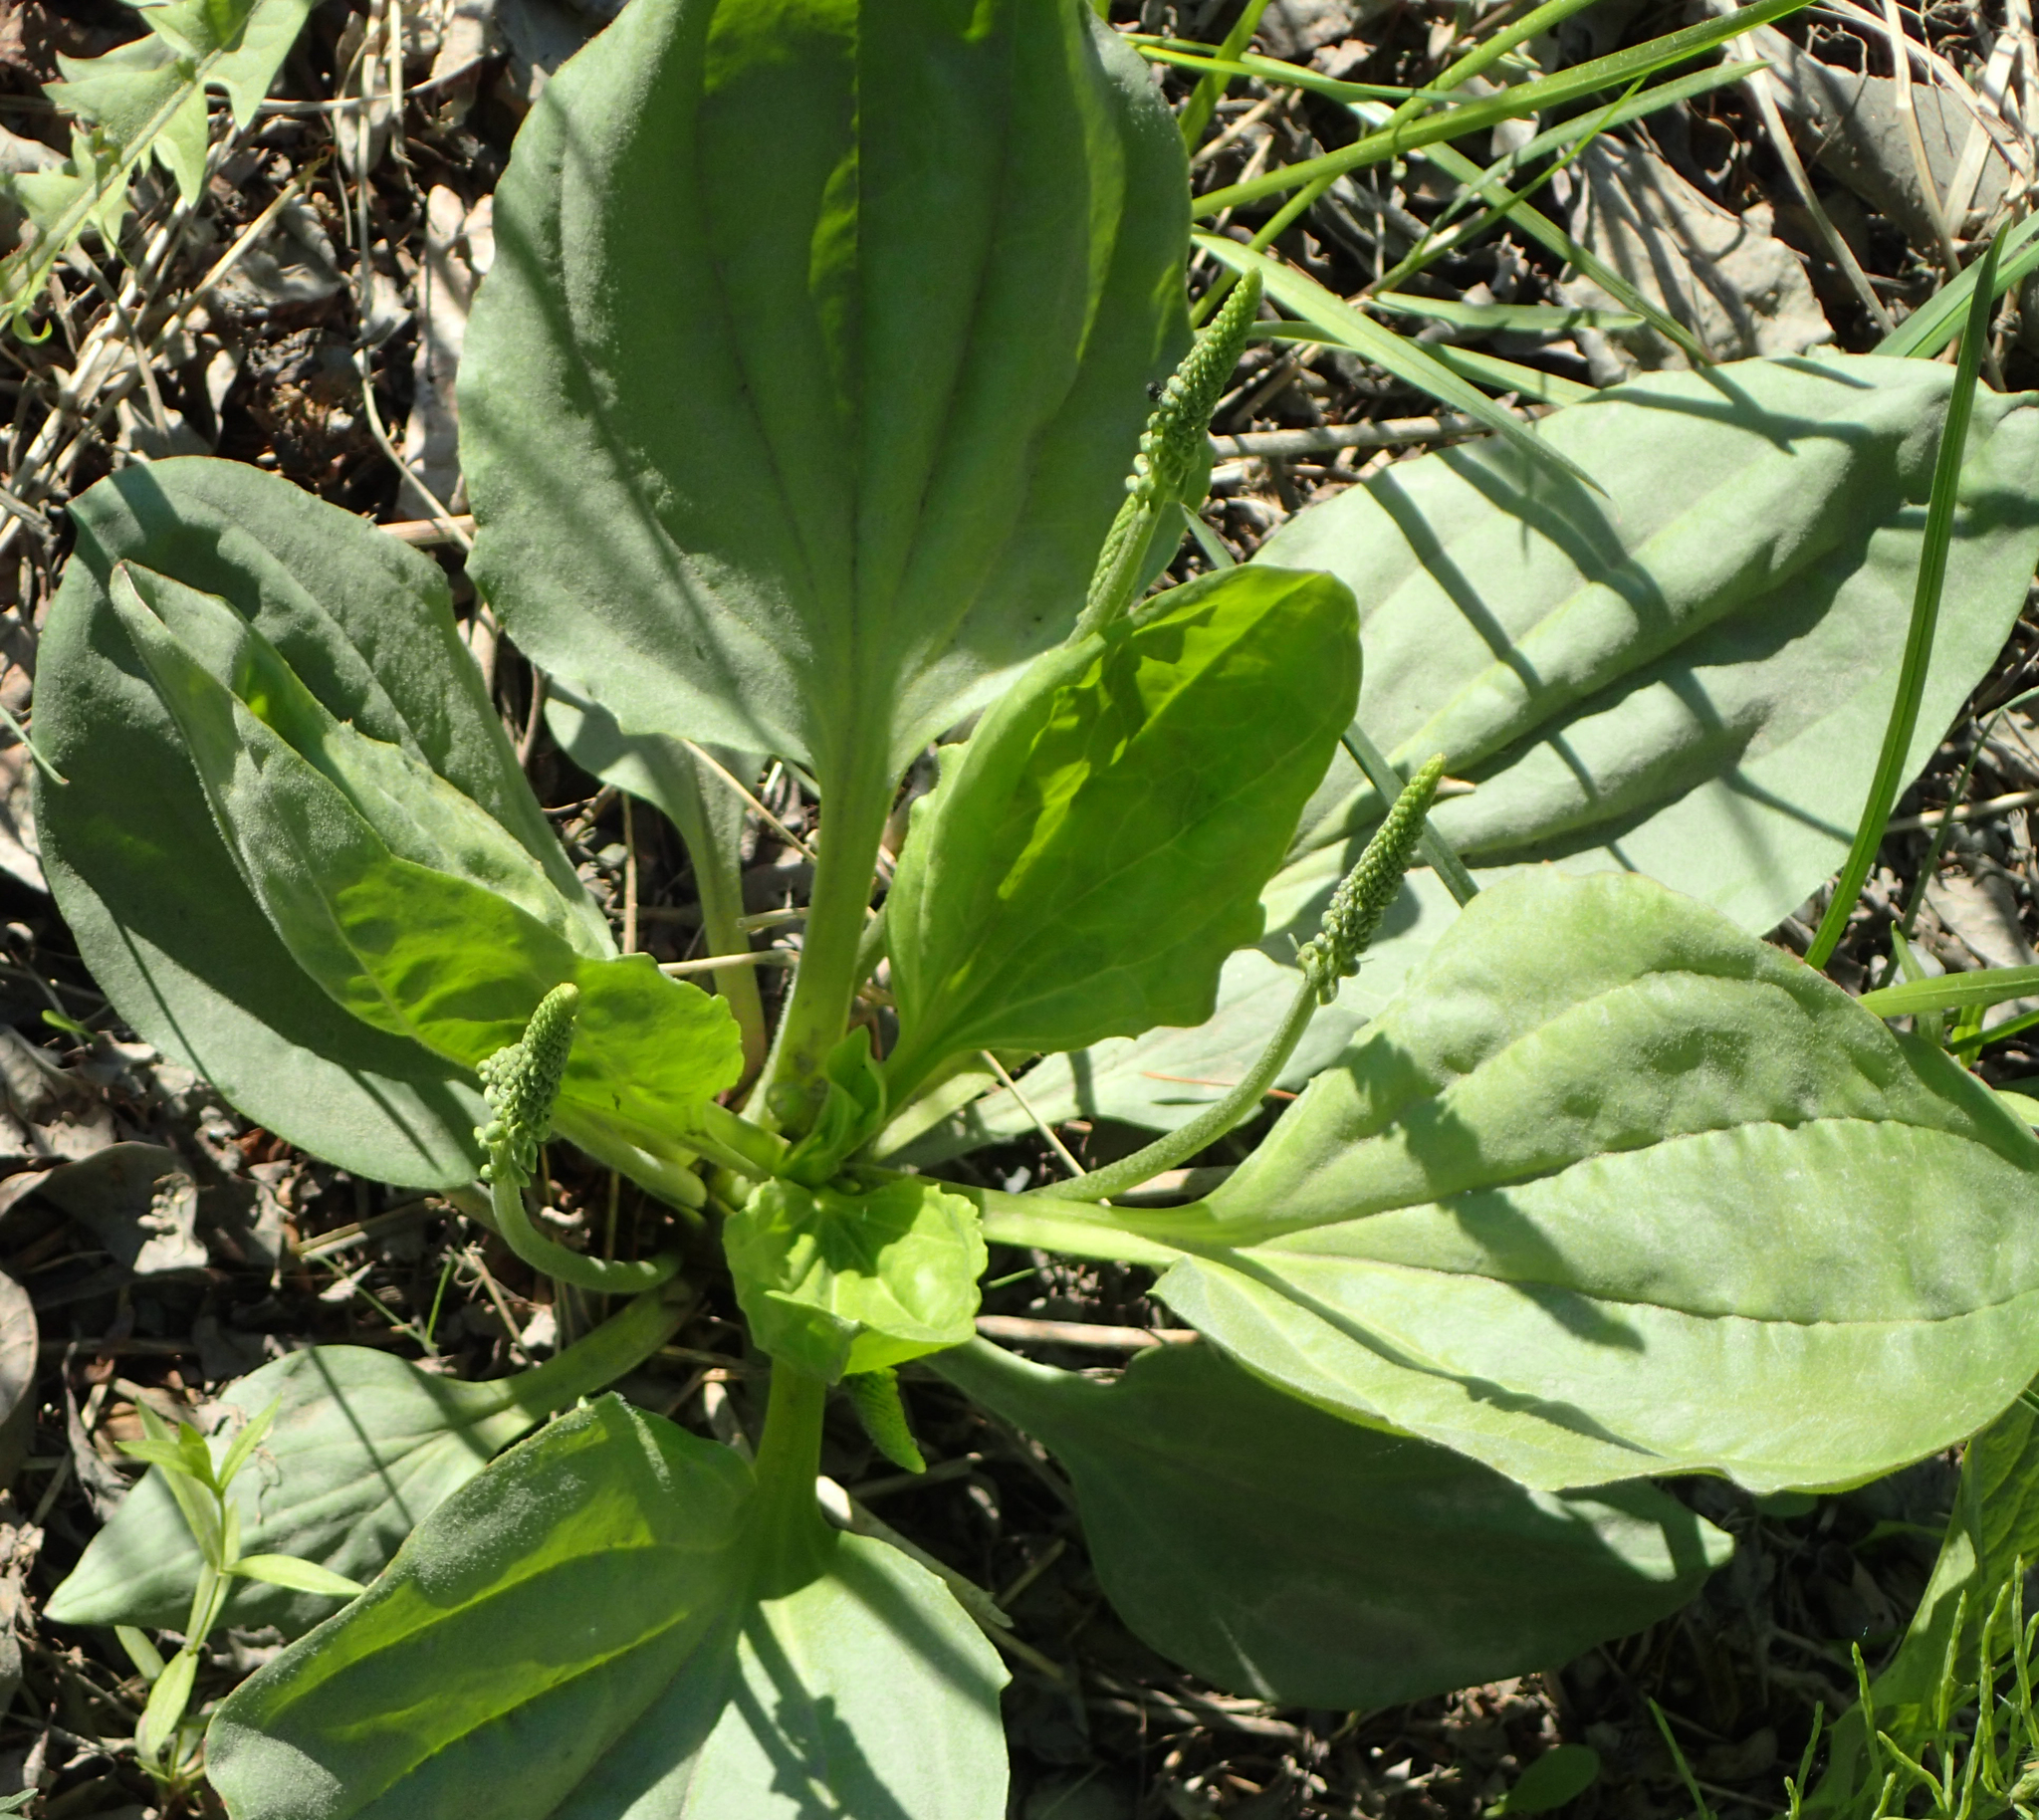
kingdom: Plantae
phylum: Tracheophyta
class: Magnoliopsida
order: Lamiales
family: Plantaginaceae
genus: Plantago
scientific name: Plantago major
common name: Common plantain
